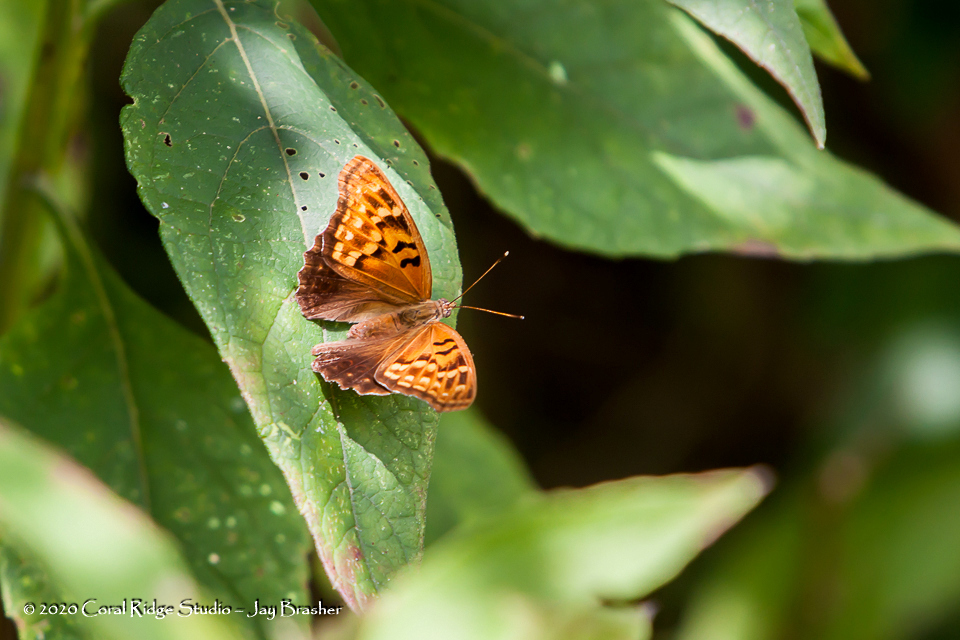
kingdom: Animalia
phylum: Arthropoda
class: Insecta
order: Lepidoptera
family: Nymphalidae
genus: Asterocampa
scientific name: Asterocampa clyton
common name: Tawny emperor
